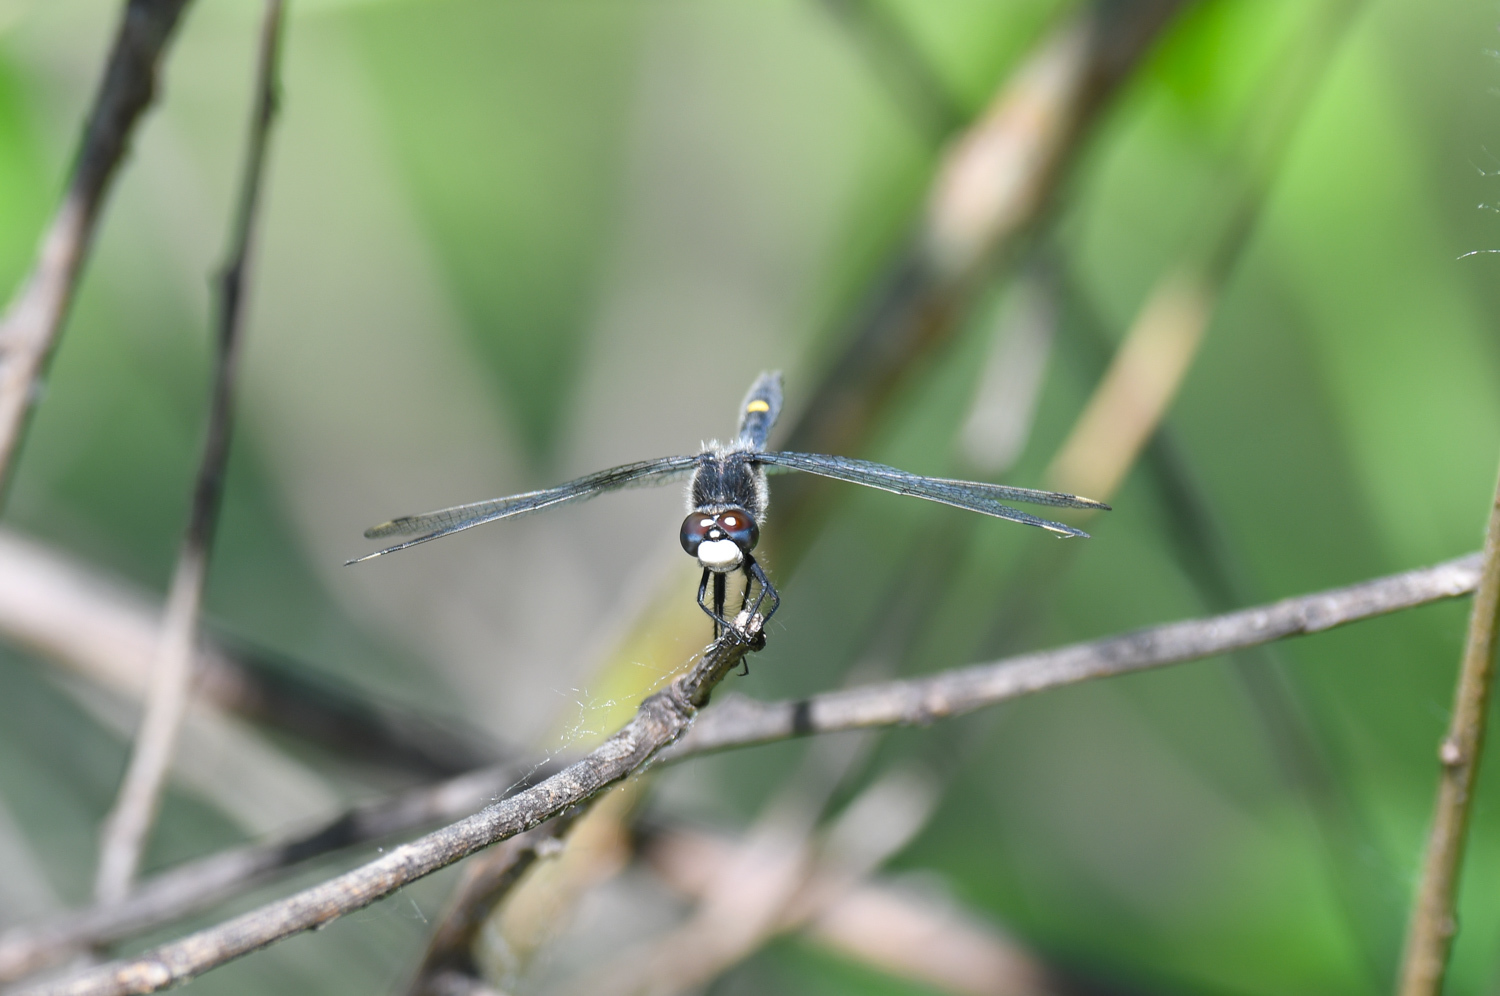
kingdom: Animalia
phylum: Arthropoda
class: Insecta
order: Odonata
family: Libellulidae
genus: Leucorrhinia
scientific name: Leucorrhinia intacta
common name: Dot-tailed whiteface
